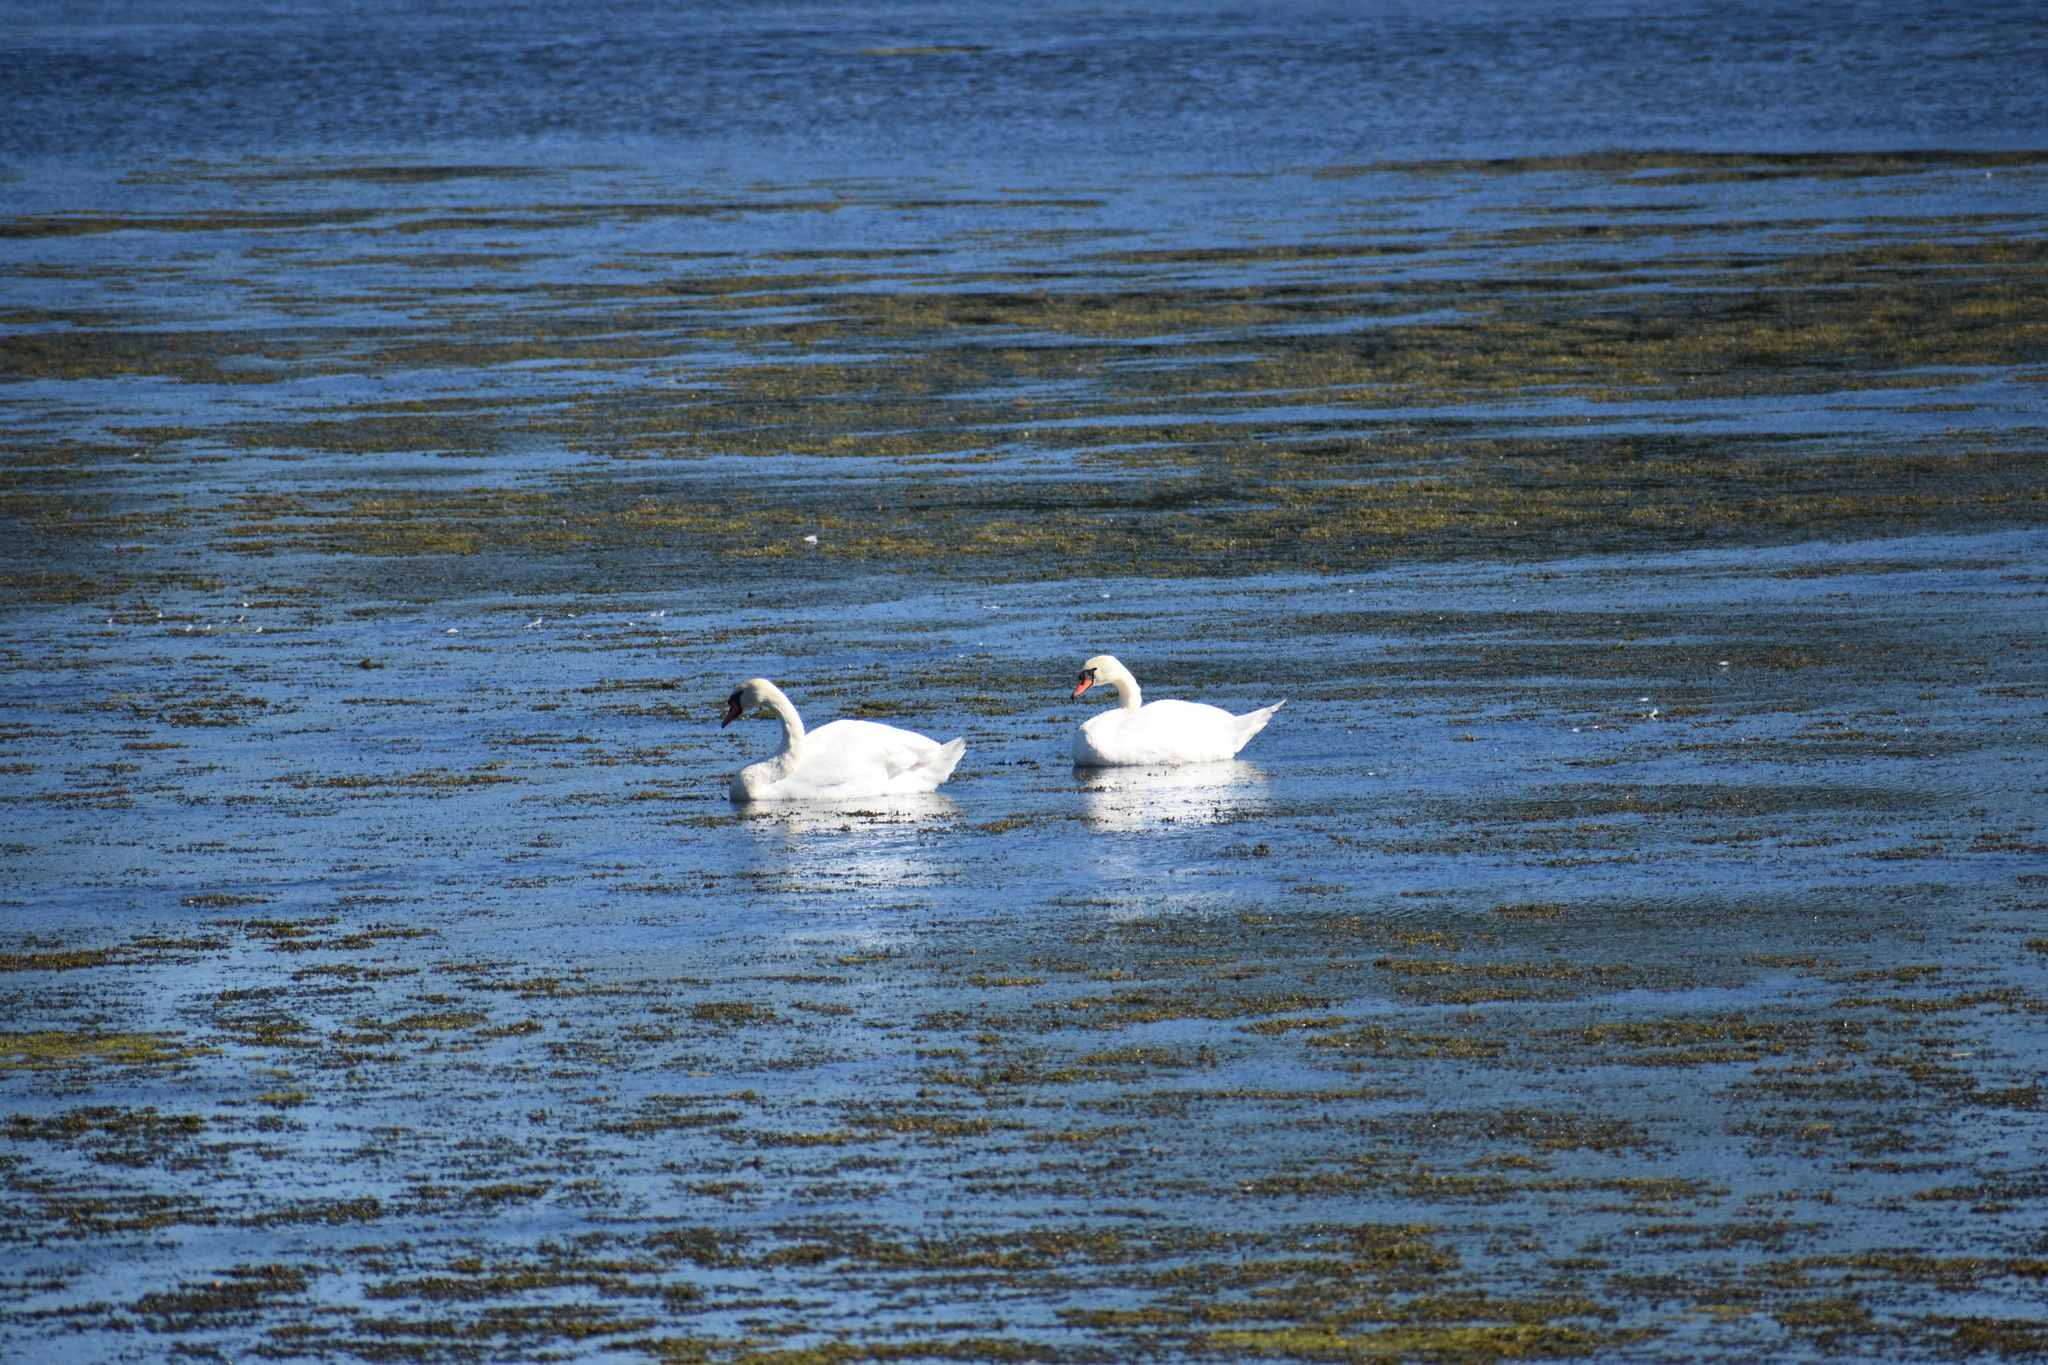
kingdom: Animalia
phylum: Chordata
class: Aves
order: Anseriformes
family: Anatidae
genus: Cygnus
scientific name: Cygnus olor
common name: Mute swan
